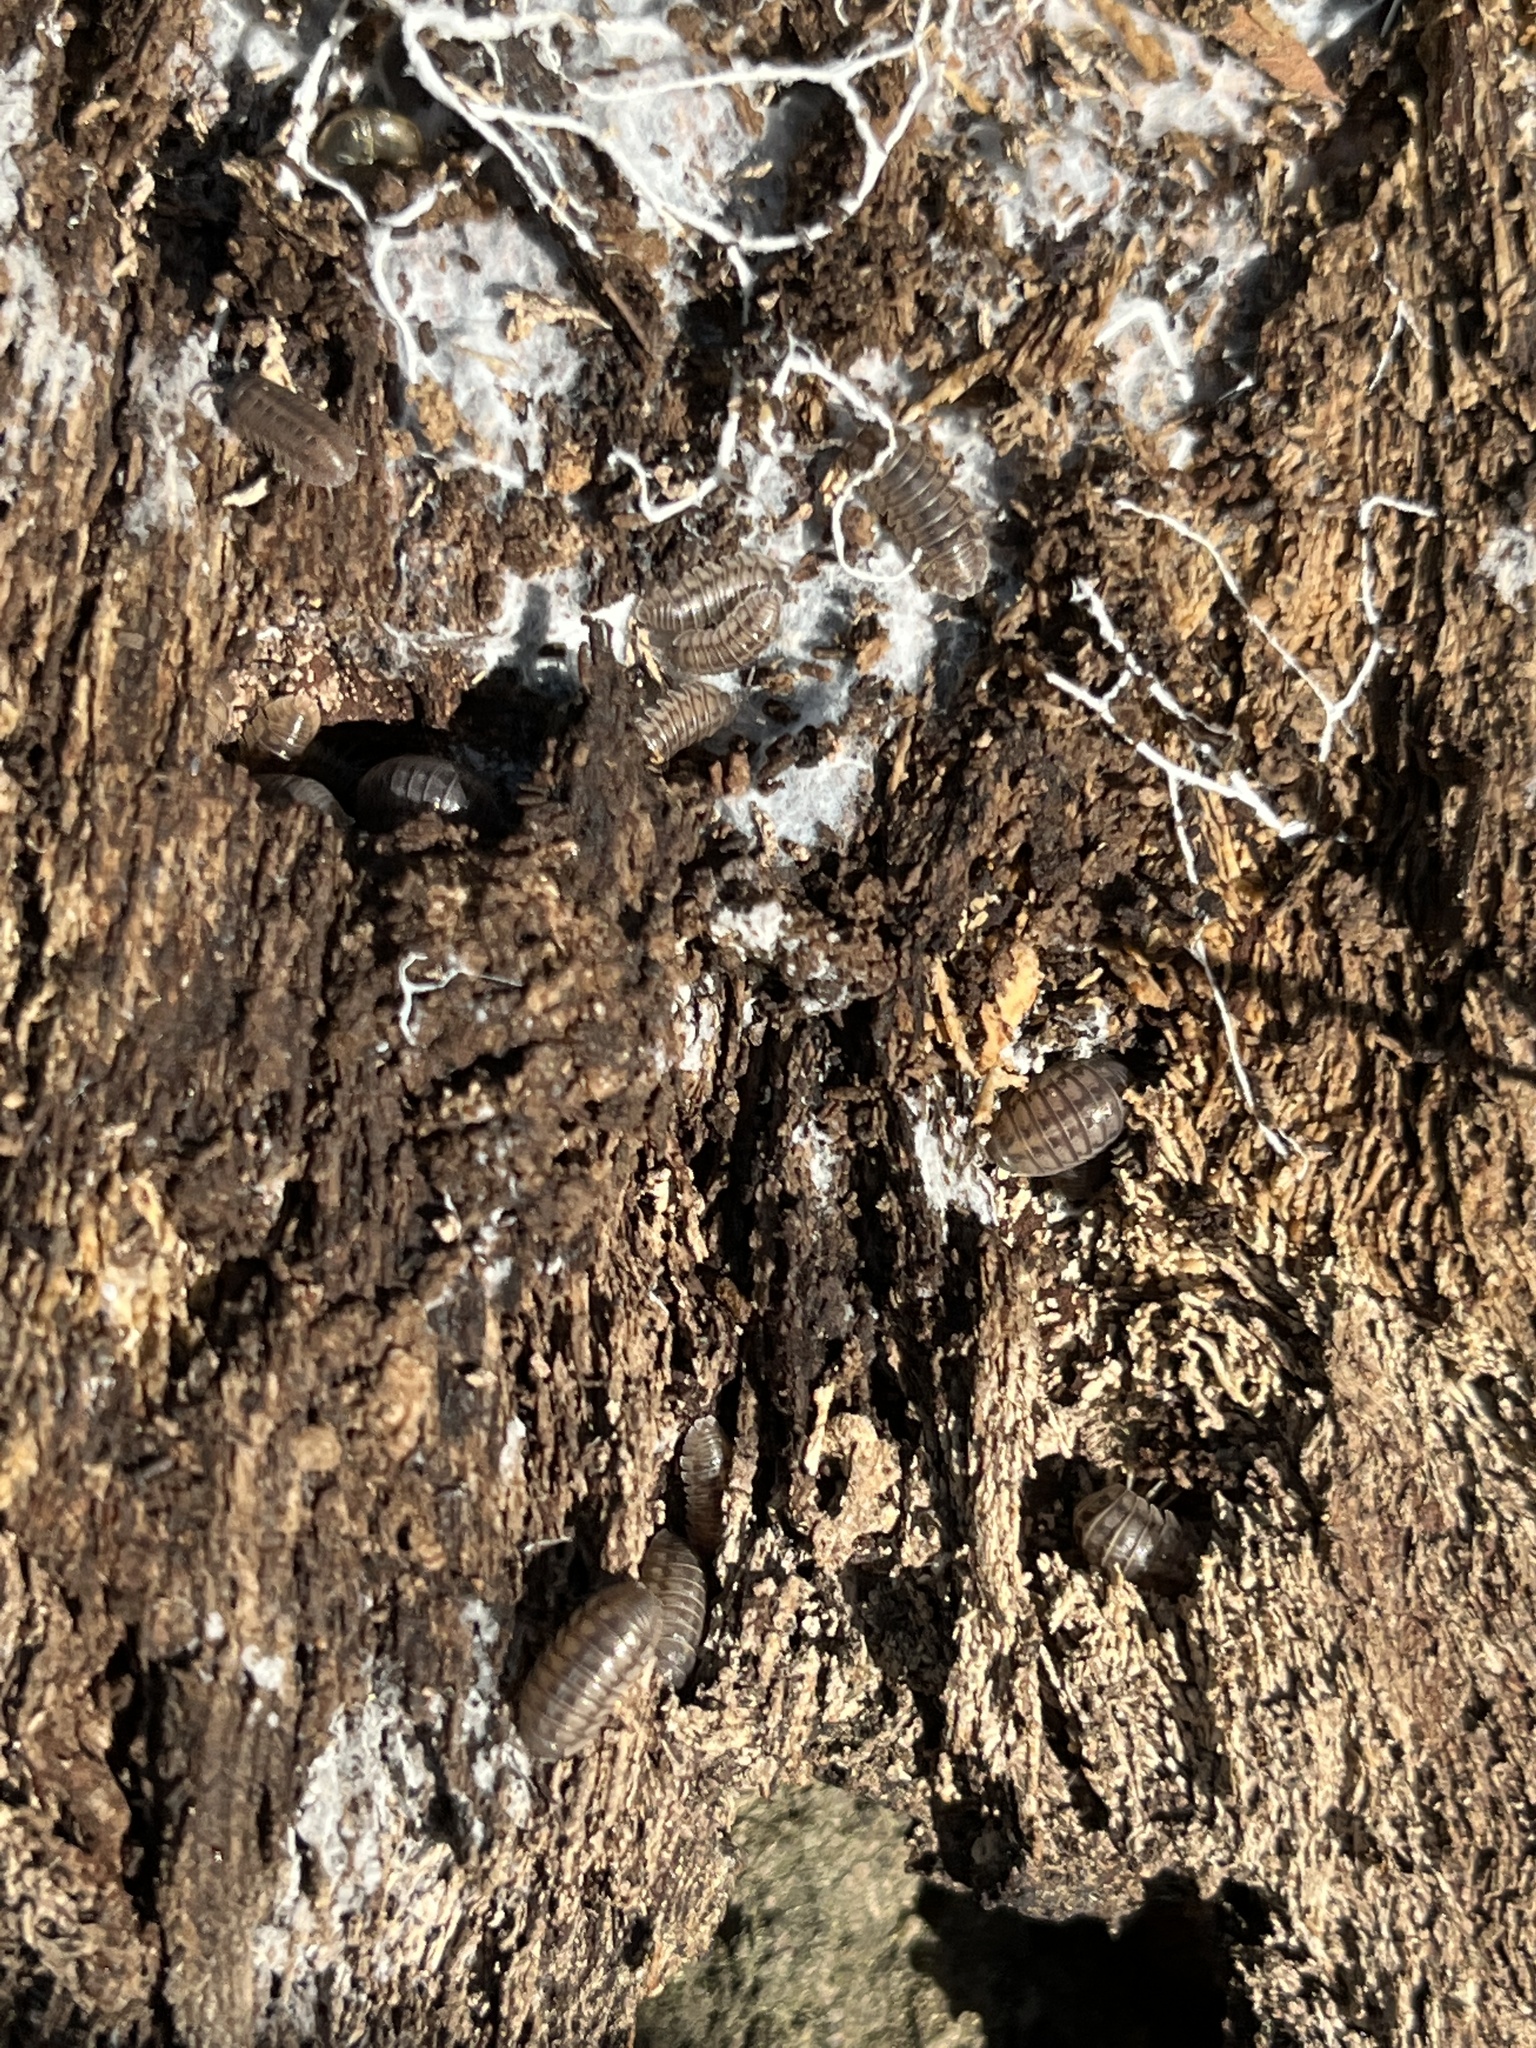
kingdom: Animalia
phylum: Arthropoda
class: Malacostraca
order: Isopoda
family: Armadillidiidae
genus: Armadillidium
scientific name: Armadillidium nasatum
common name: Isopod
